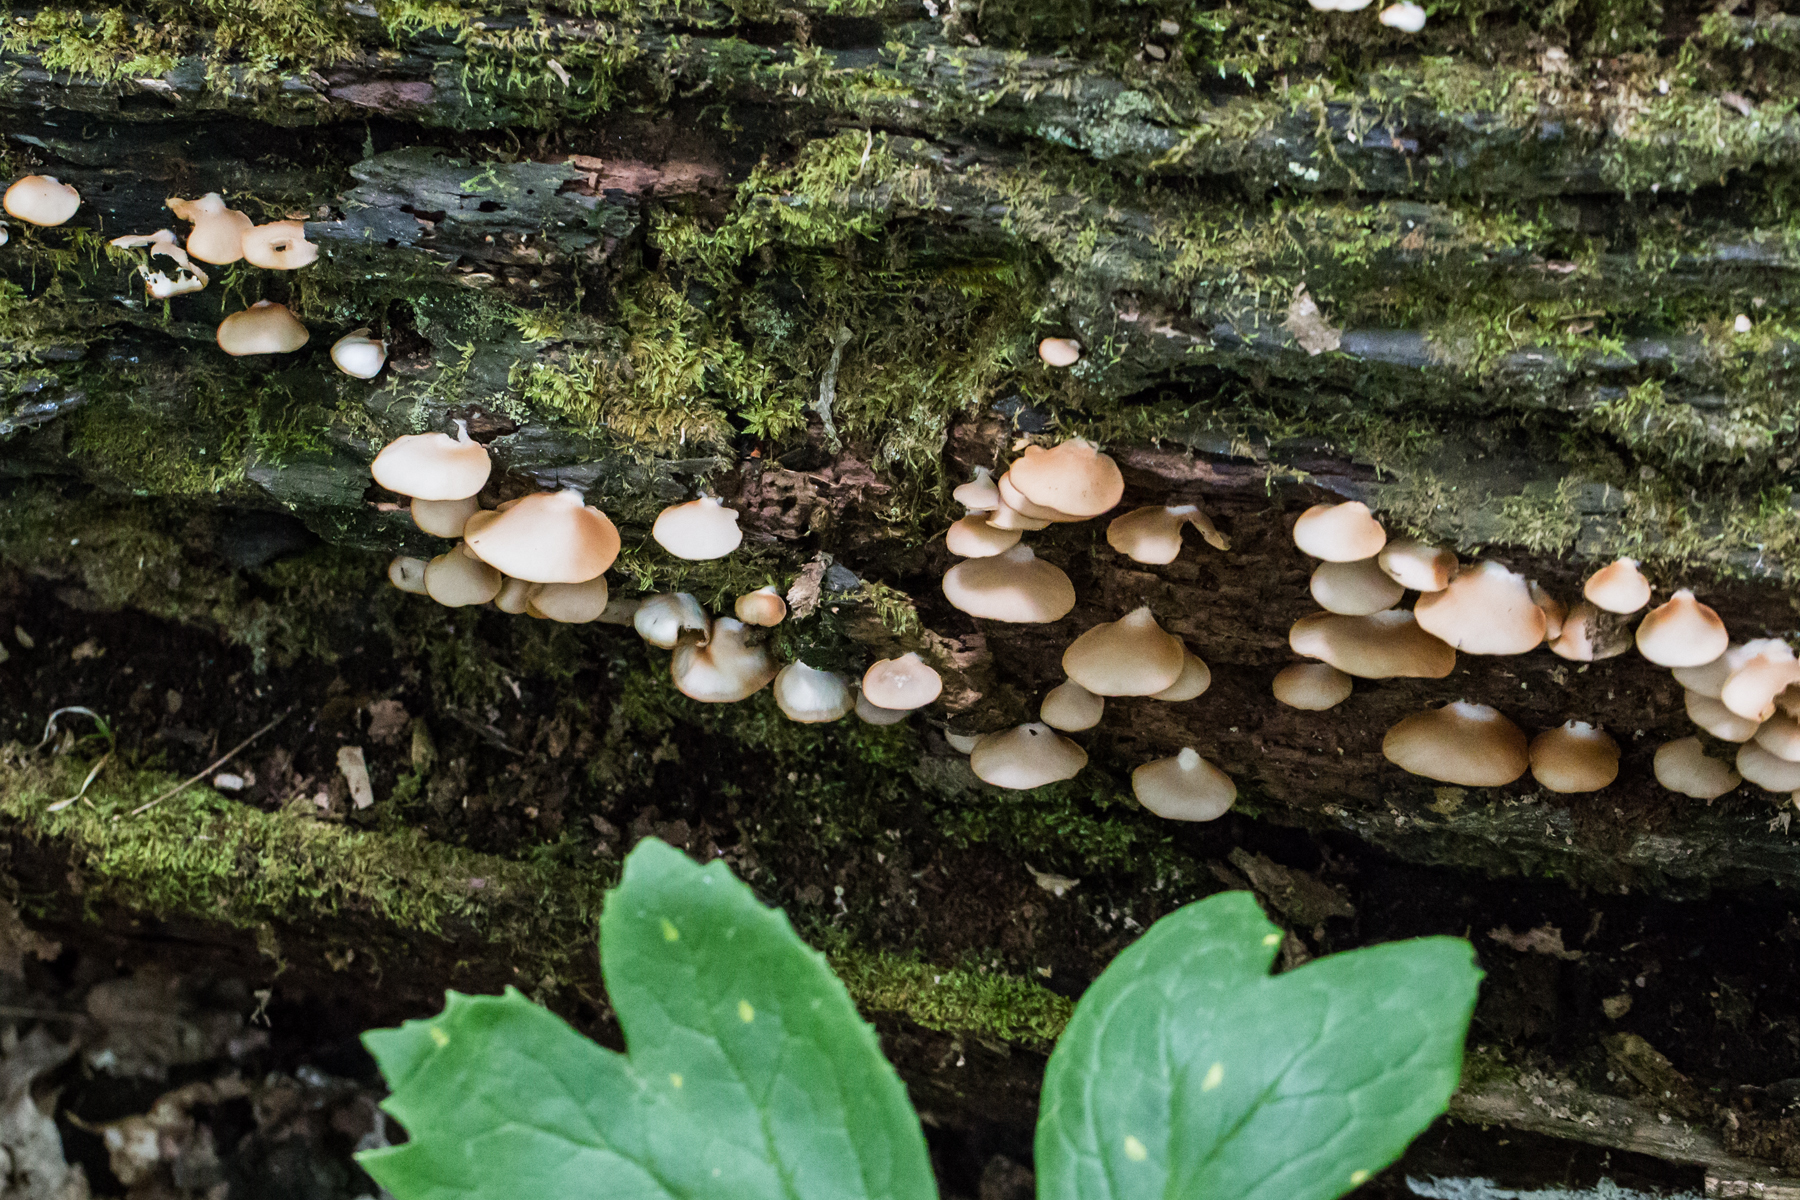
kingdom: Fungi
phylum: Basidiomycota
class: Agaricomycetes
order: Agaricales
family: Crepidotaceae
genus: Crepidotus
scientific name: Crepidotus applanatus
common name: Flat crep
